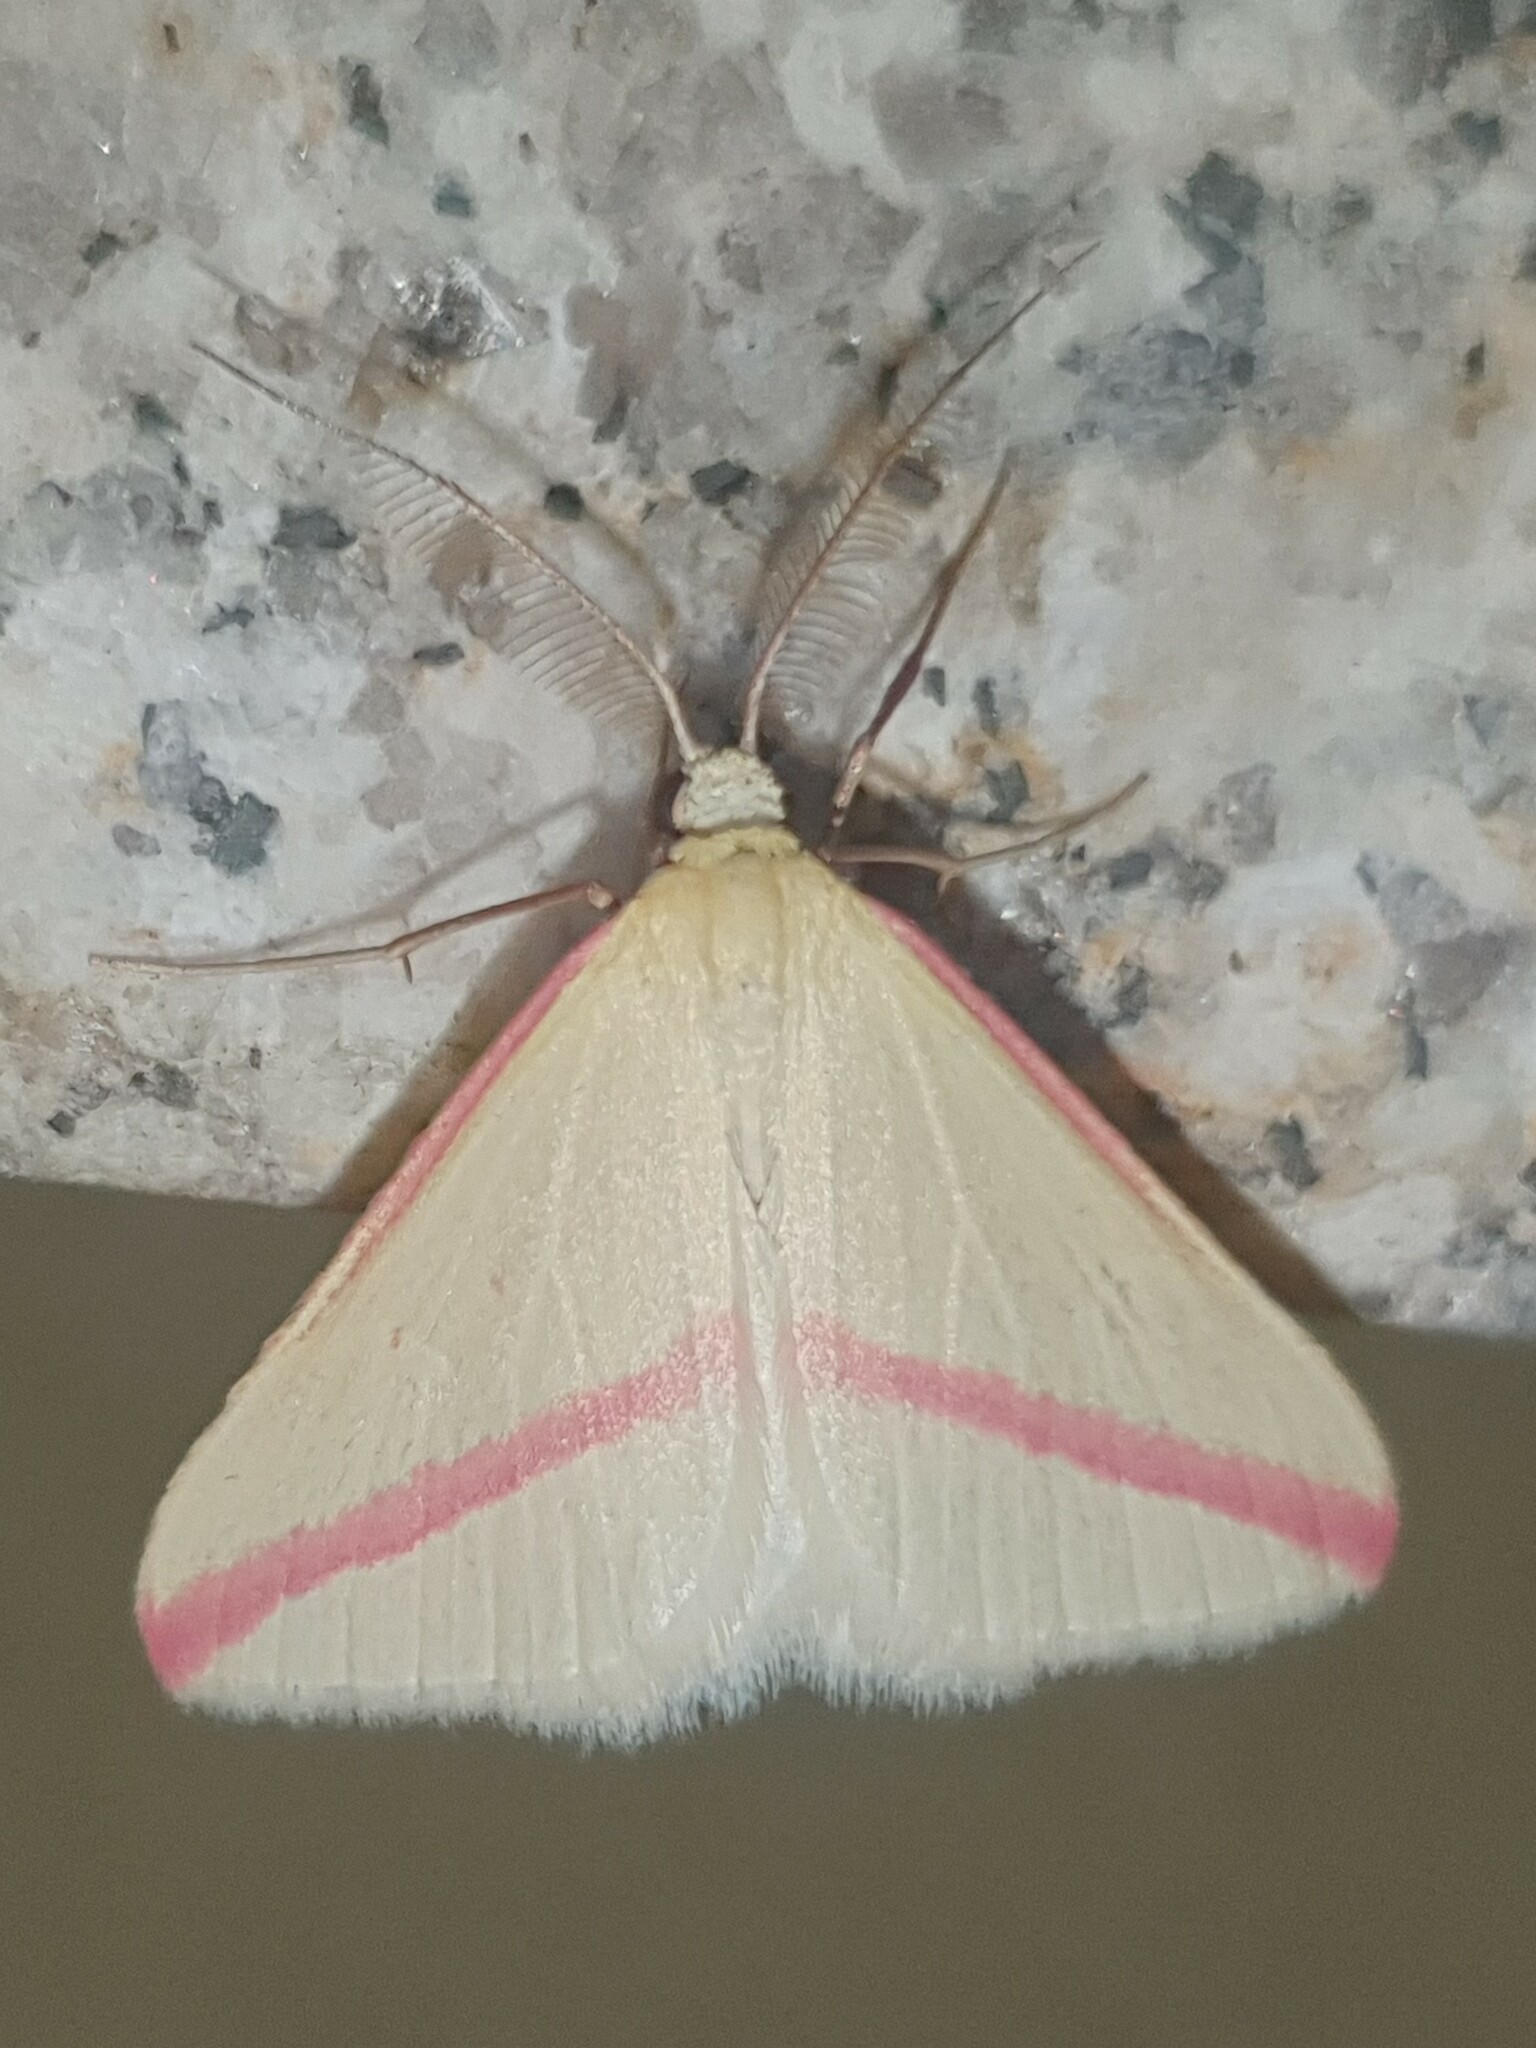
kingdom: Animalia
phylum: Arthropoda
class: Insecta
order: Lepidoptera
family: Geometridae
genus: Rhodometra
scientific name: Rhodometra sacraria
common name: Vestal
